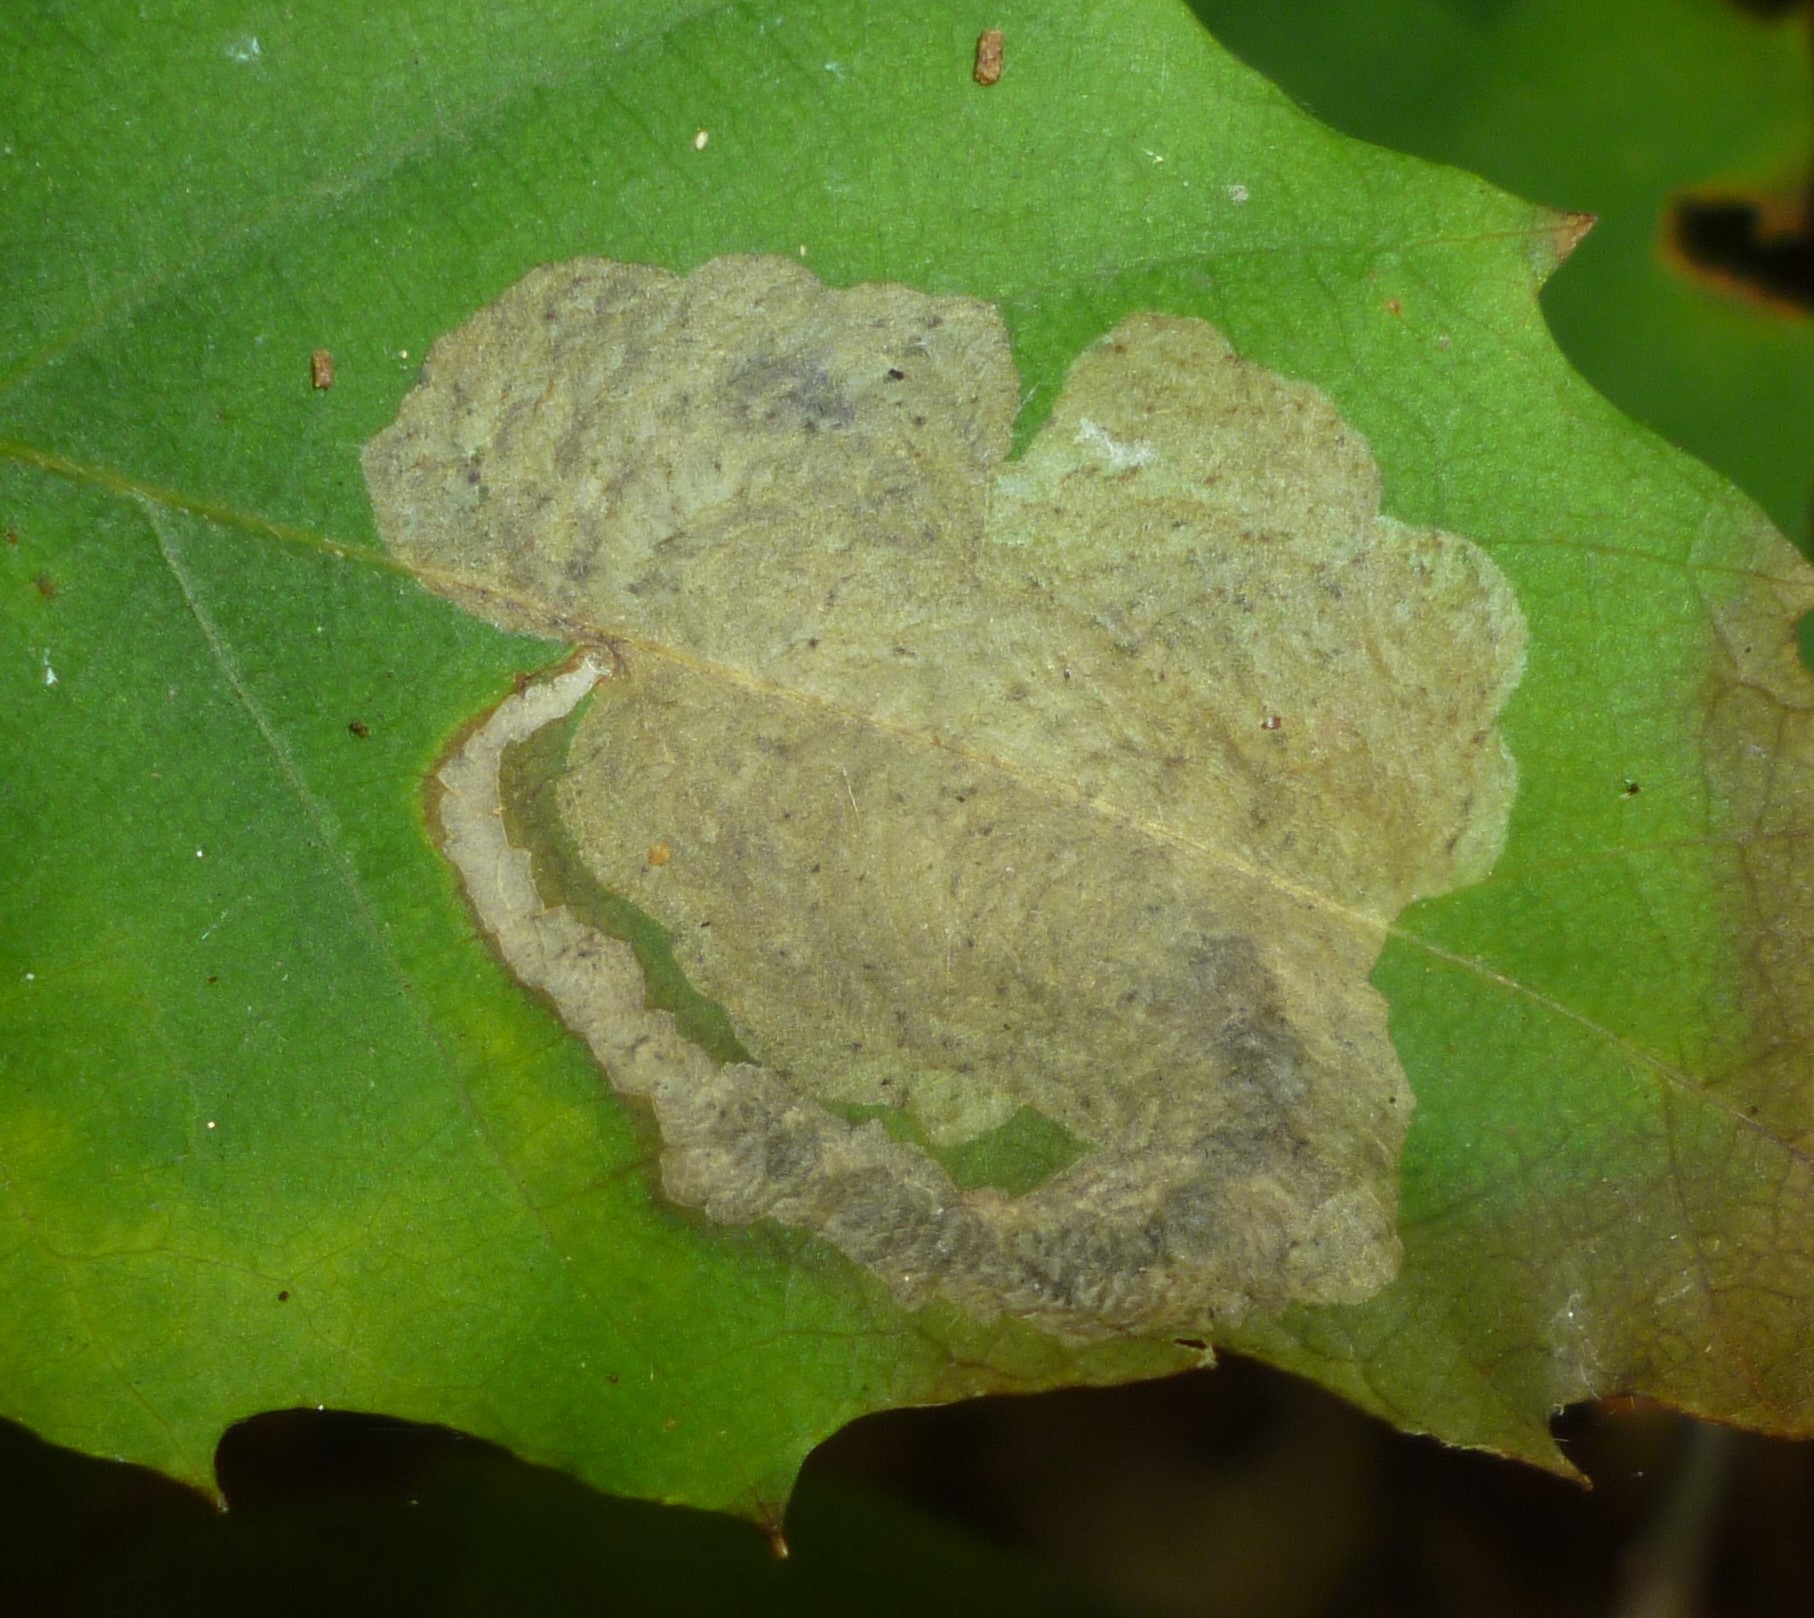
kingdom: Animalia
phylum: Arthropoda
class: Insecta
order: Lepidoptera
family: Tischeriidae
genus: Coptotriche
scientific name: Coptotriche castaneaeella
